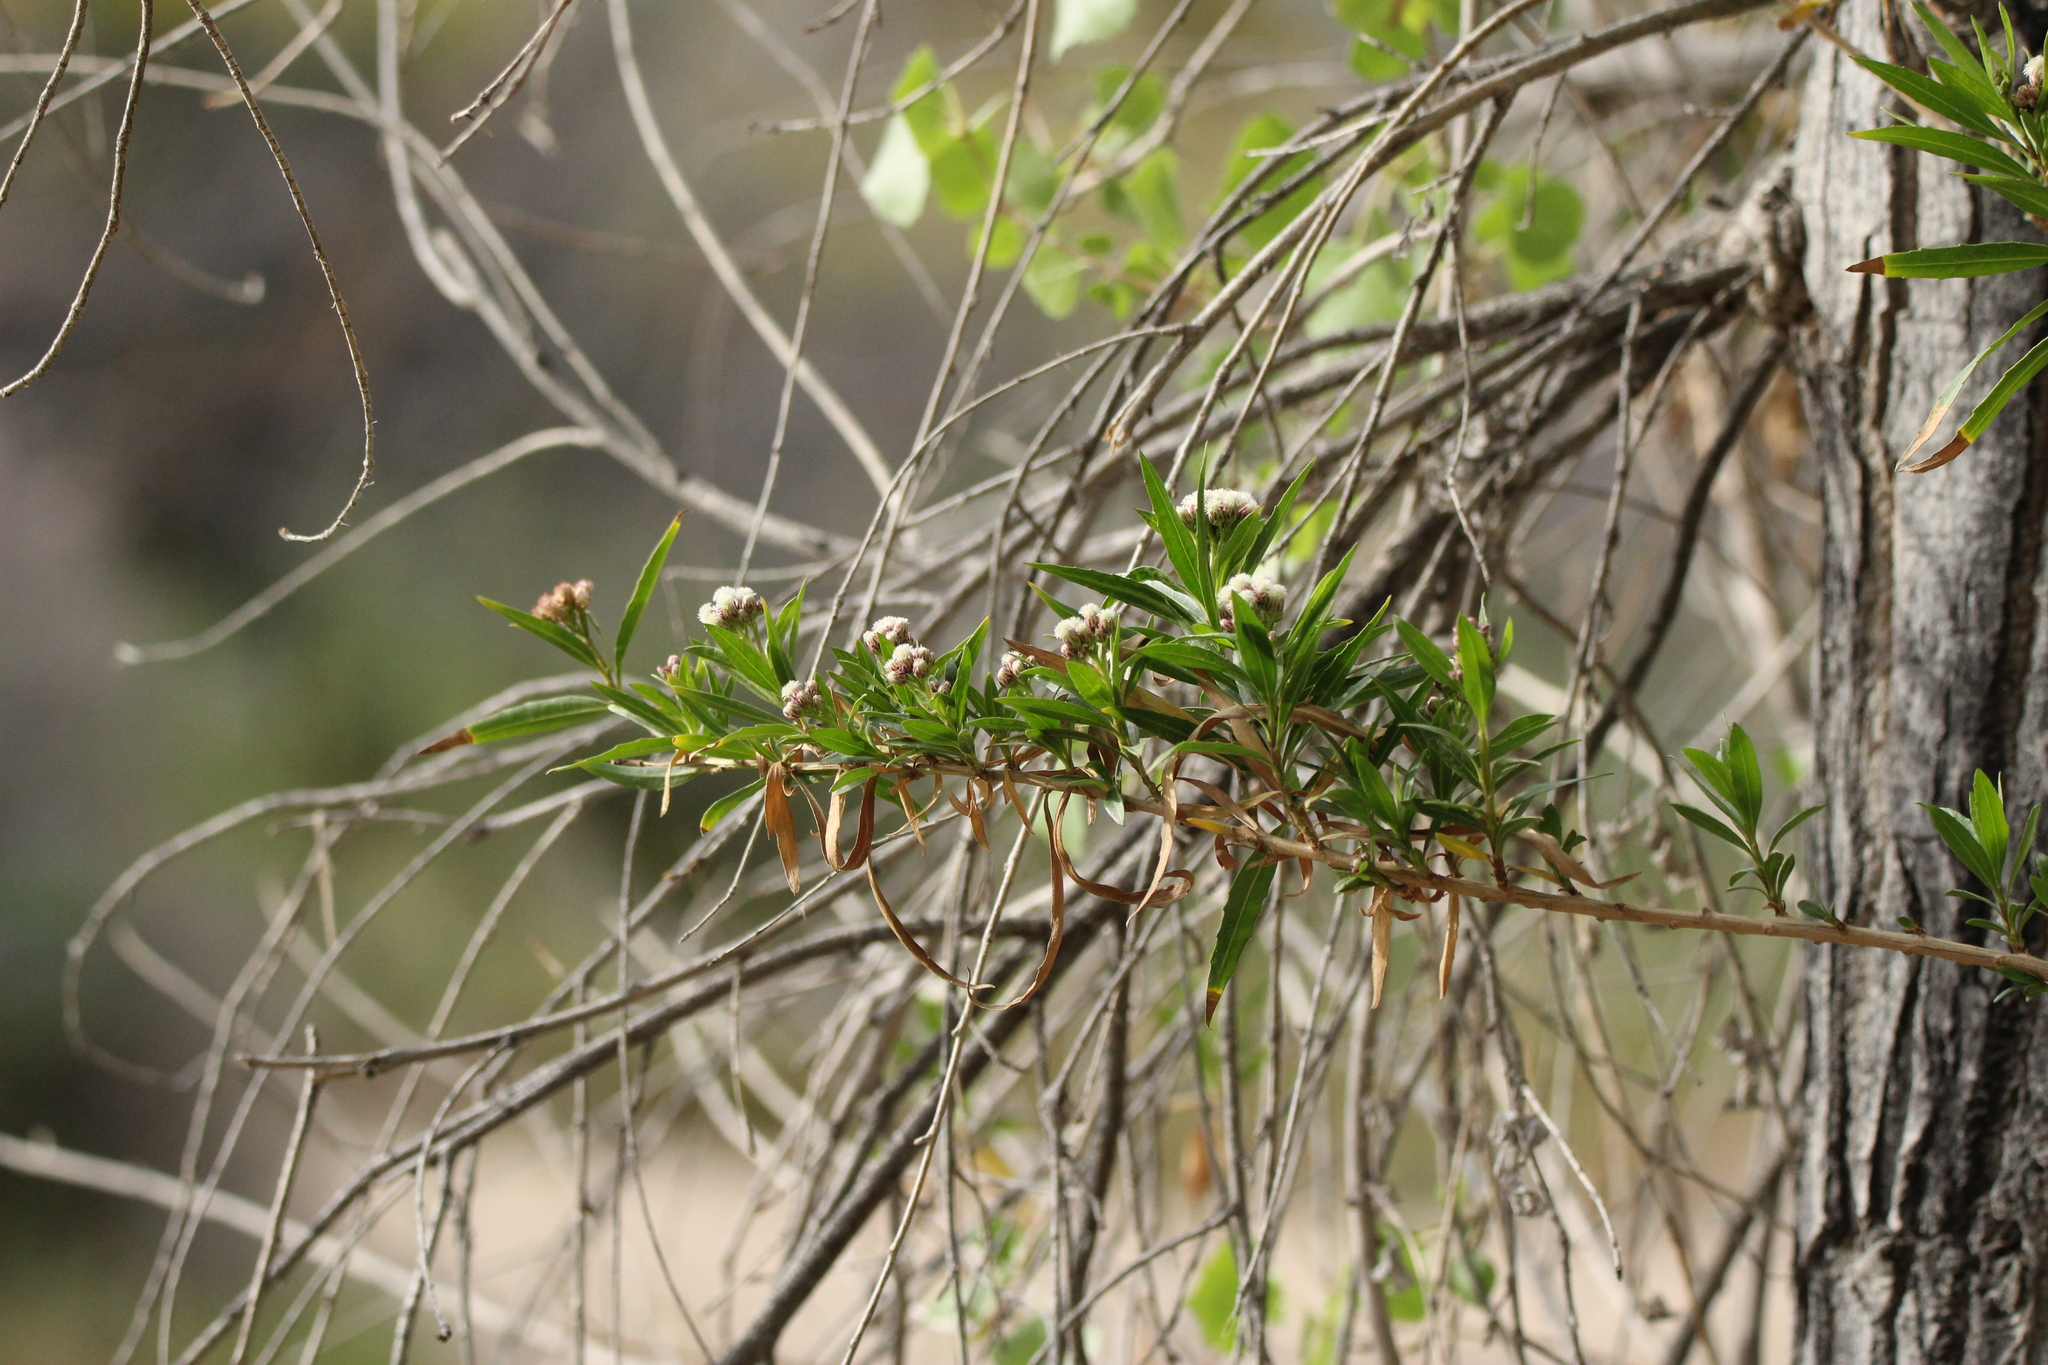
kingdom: Plantae
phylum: Tracheophyta
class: Magnoliopsida
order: Asterales
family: Asteraceae
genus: Baccharis
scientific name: Baccharis salicifolia
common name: Sticky baccharis
